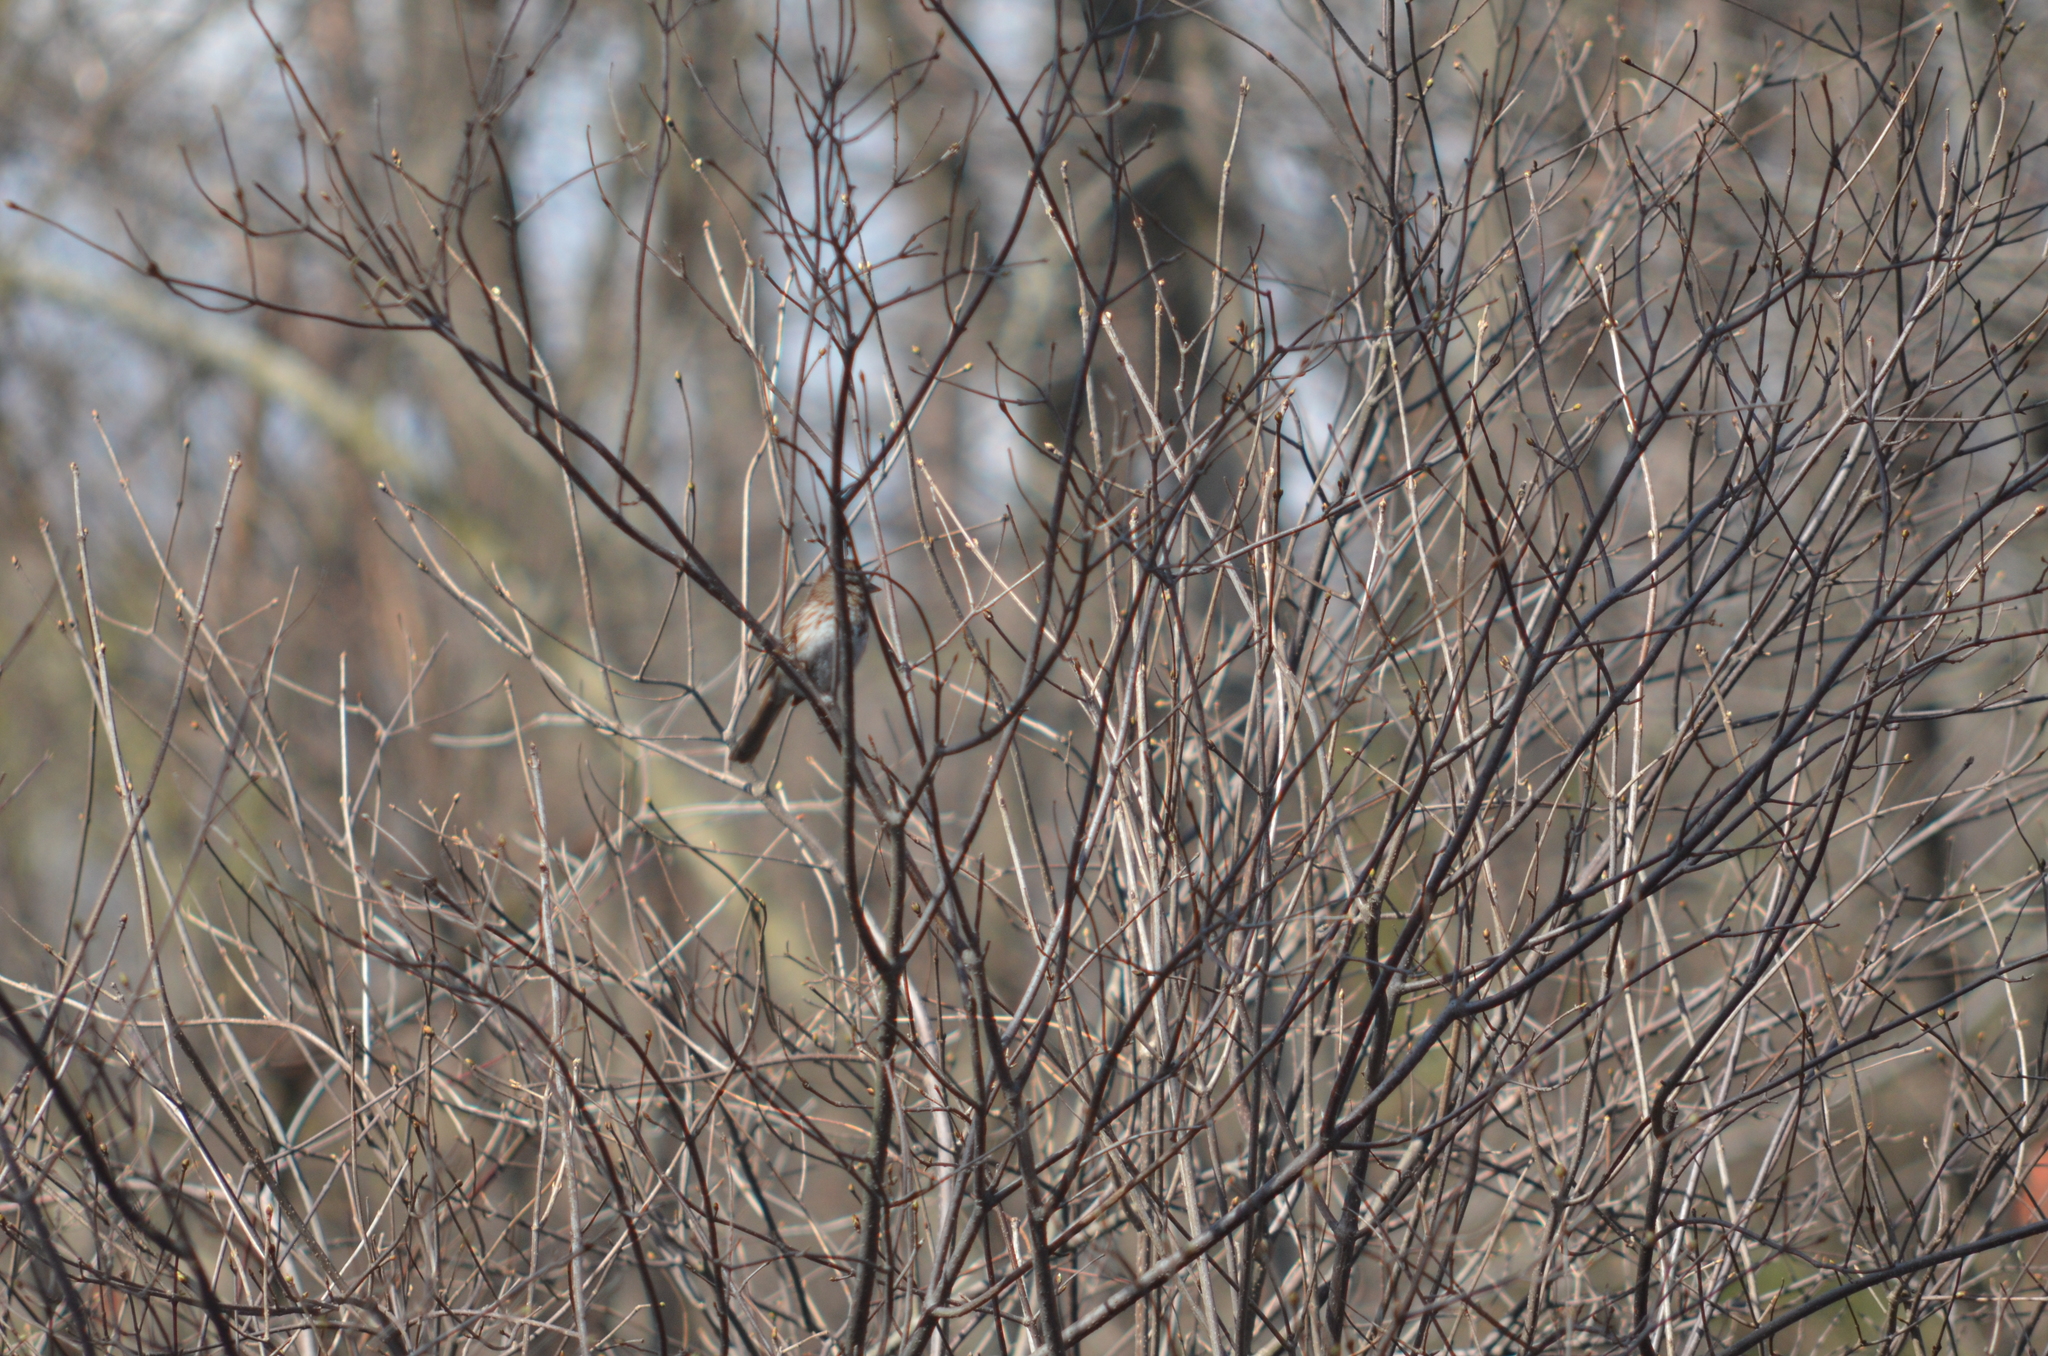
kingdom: Animalia
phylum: Chordata
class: Aves
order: Passeriformes
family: Passerellidae
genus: Melospiza
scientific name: Melospiza melodia
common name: Song sparrow
